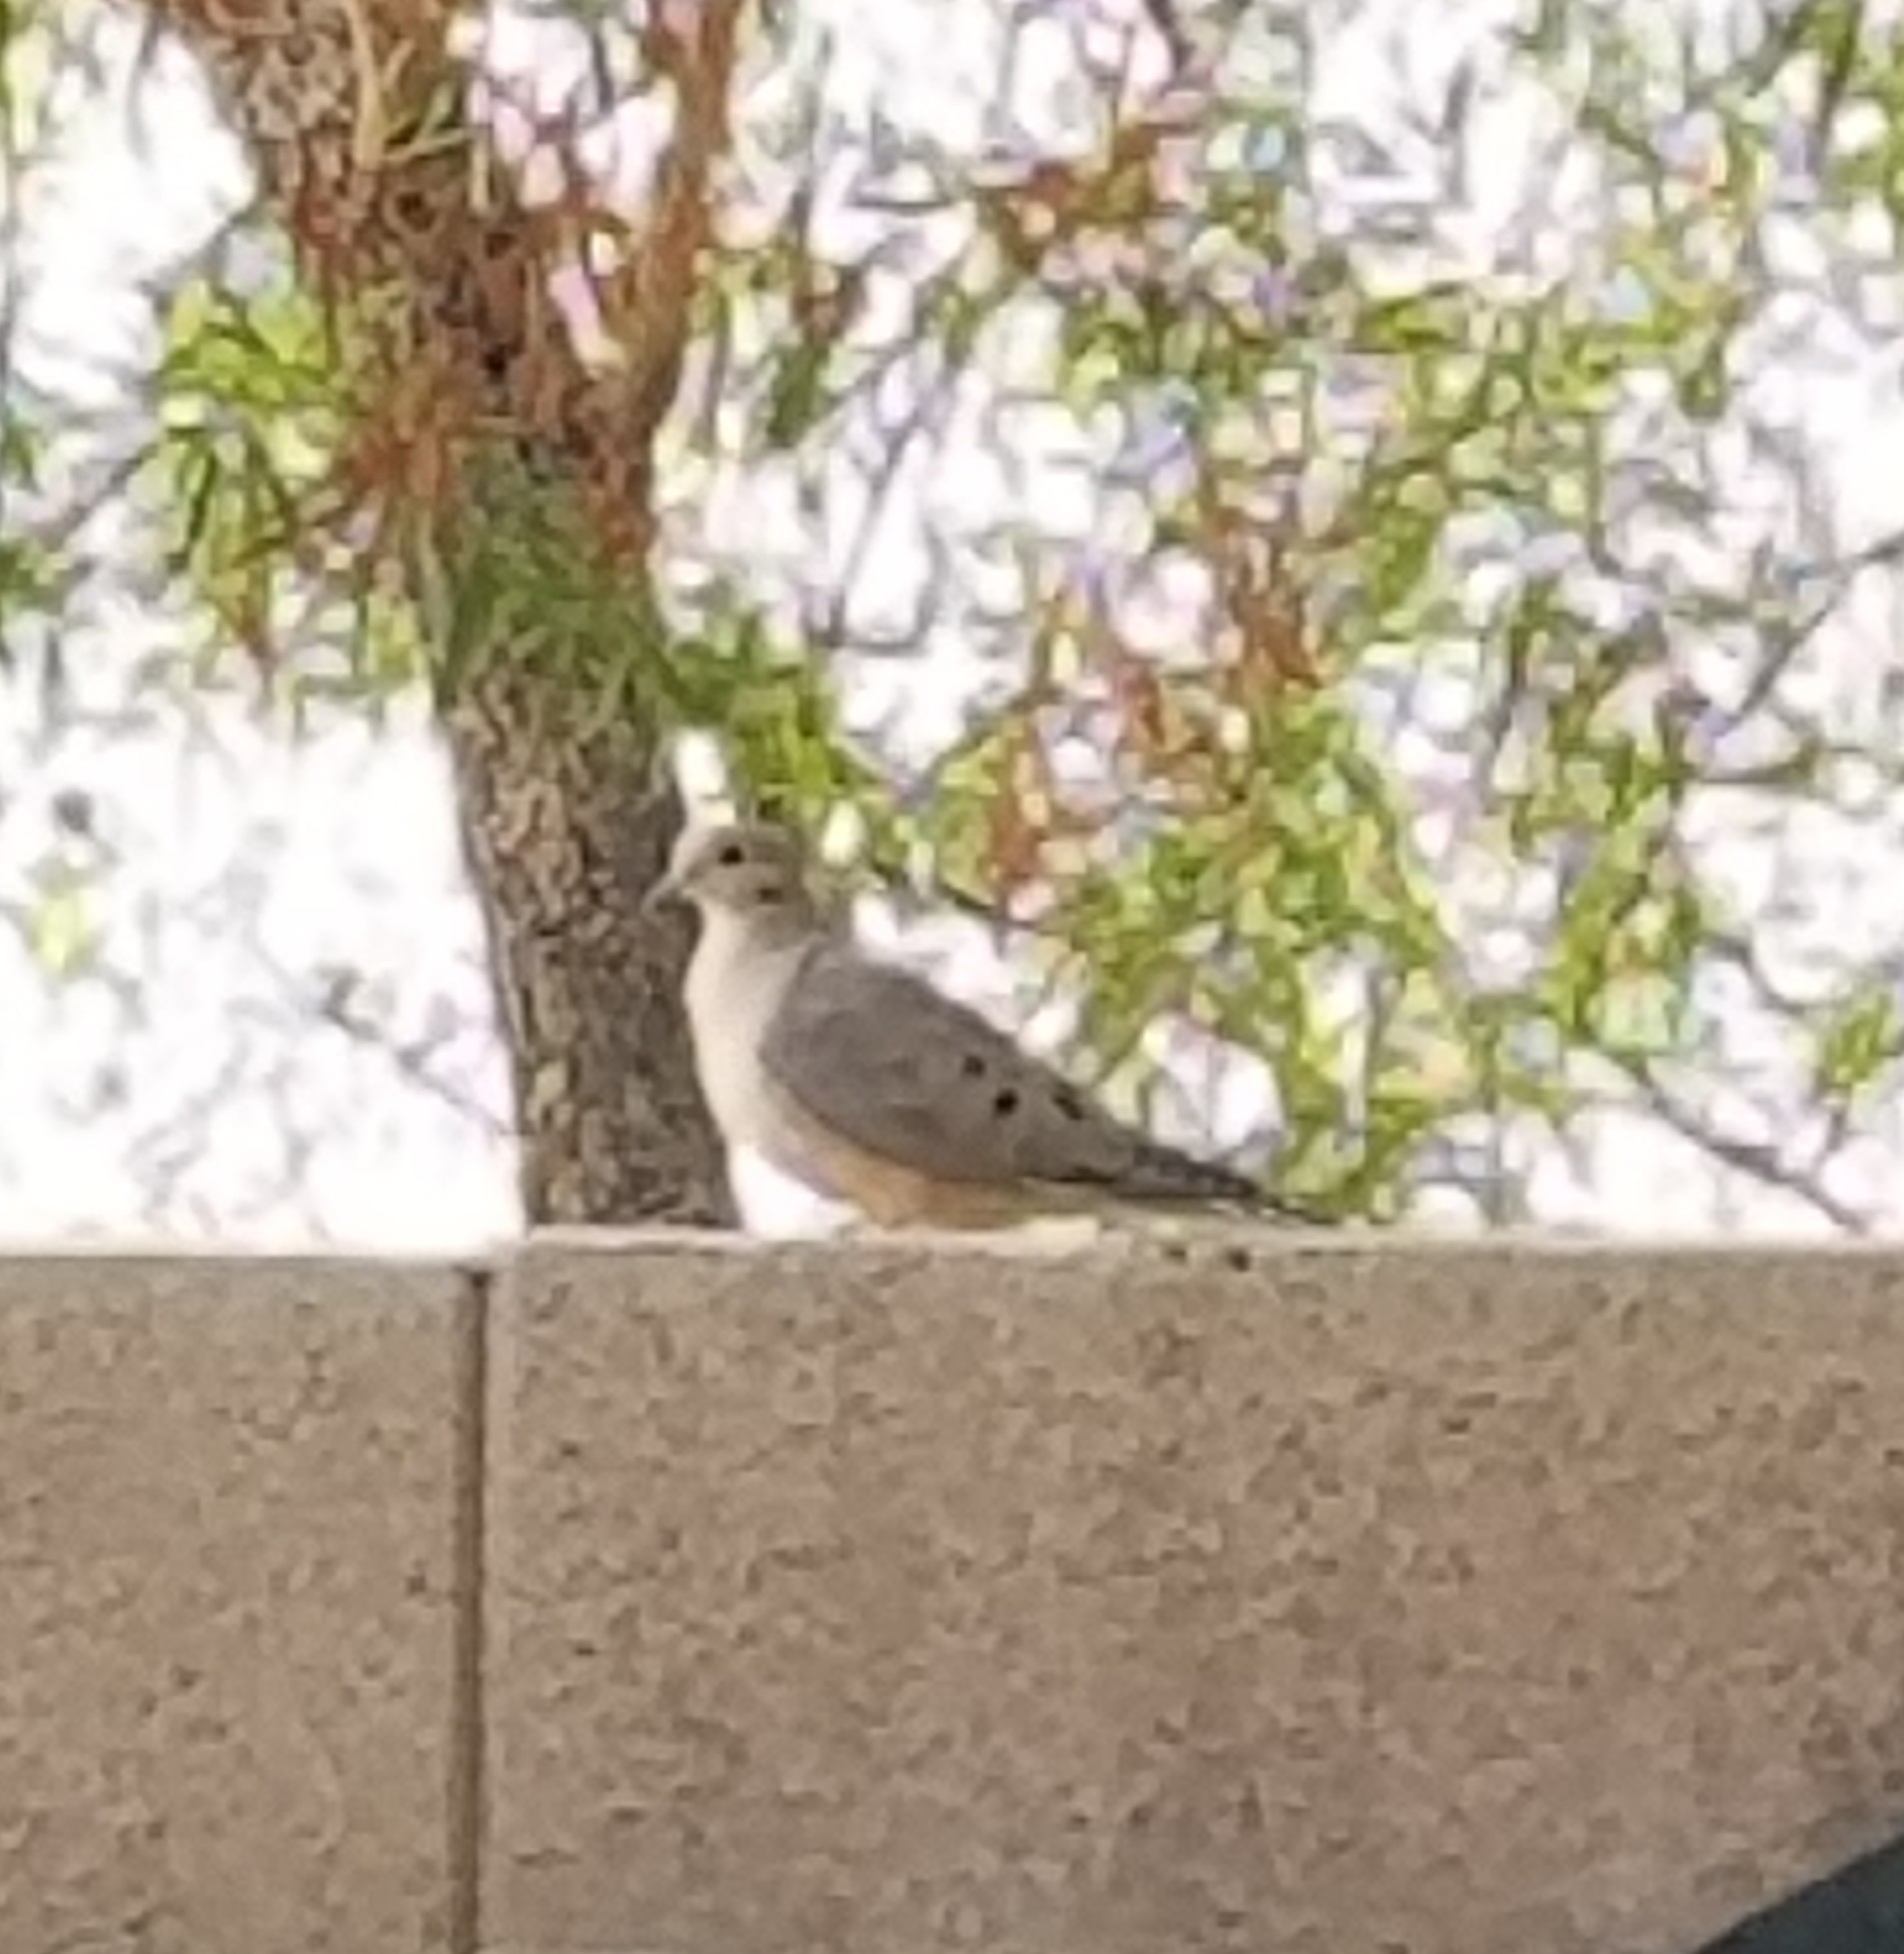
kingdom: Animalia
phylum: Chordata
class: Aves
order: Columbiformes
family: Columbidae
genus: Zenaida
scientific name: Zenaida macroura
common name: Mourning dove
